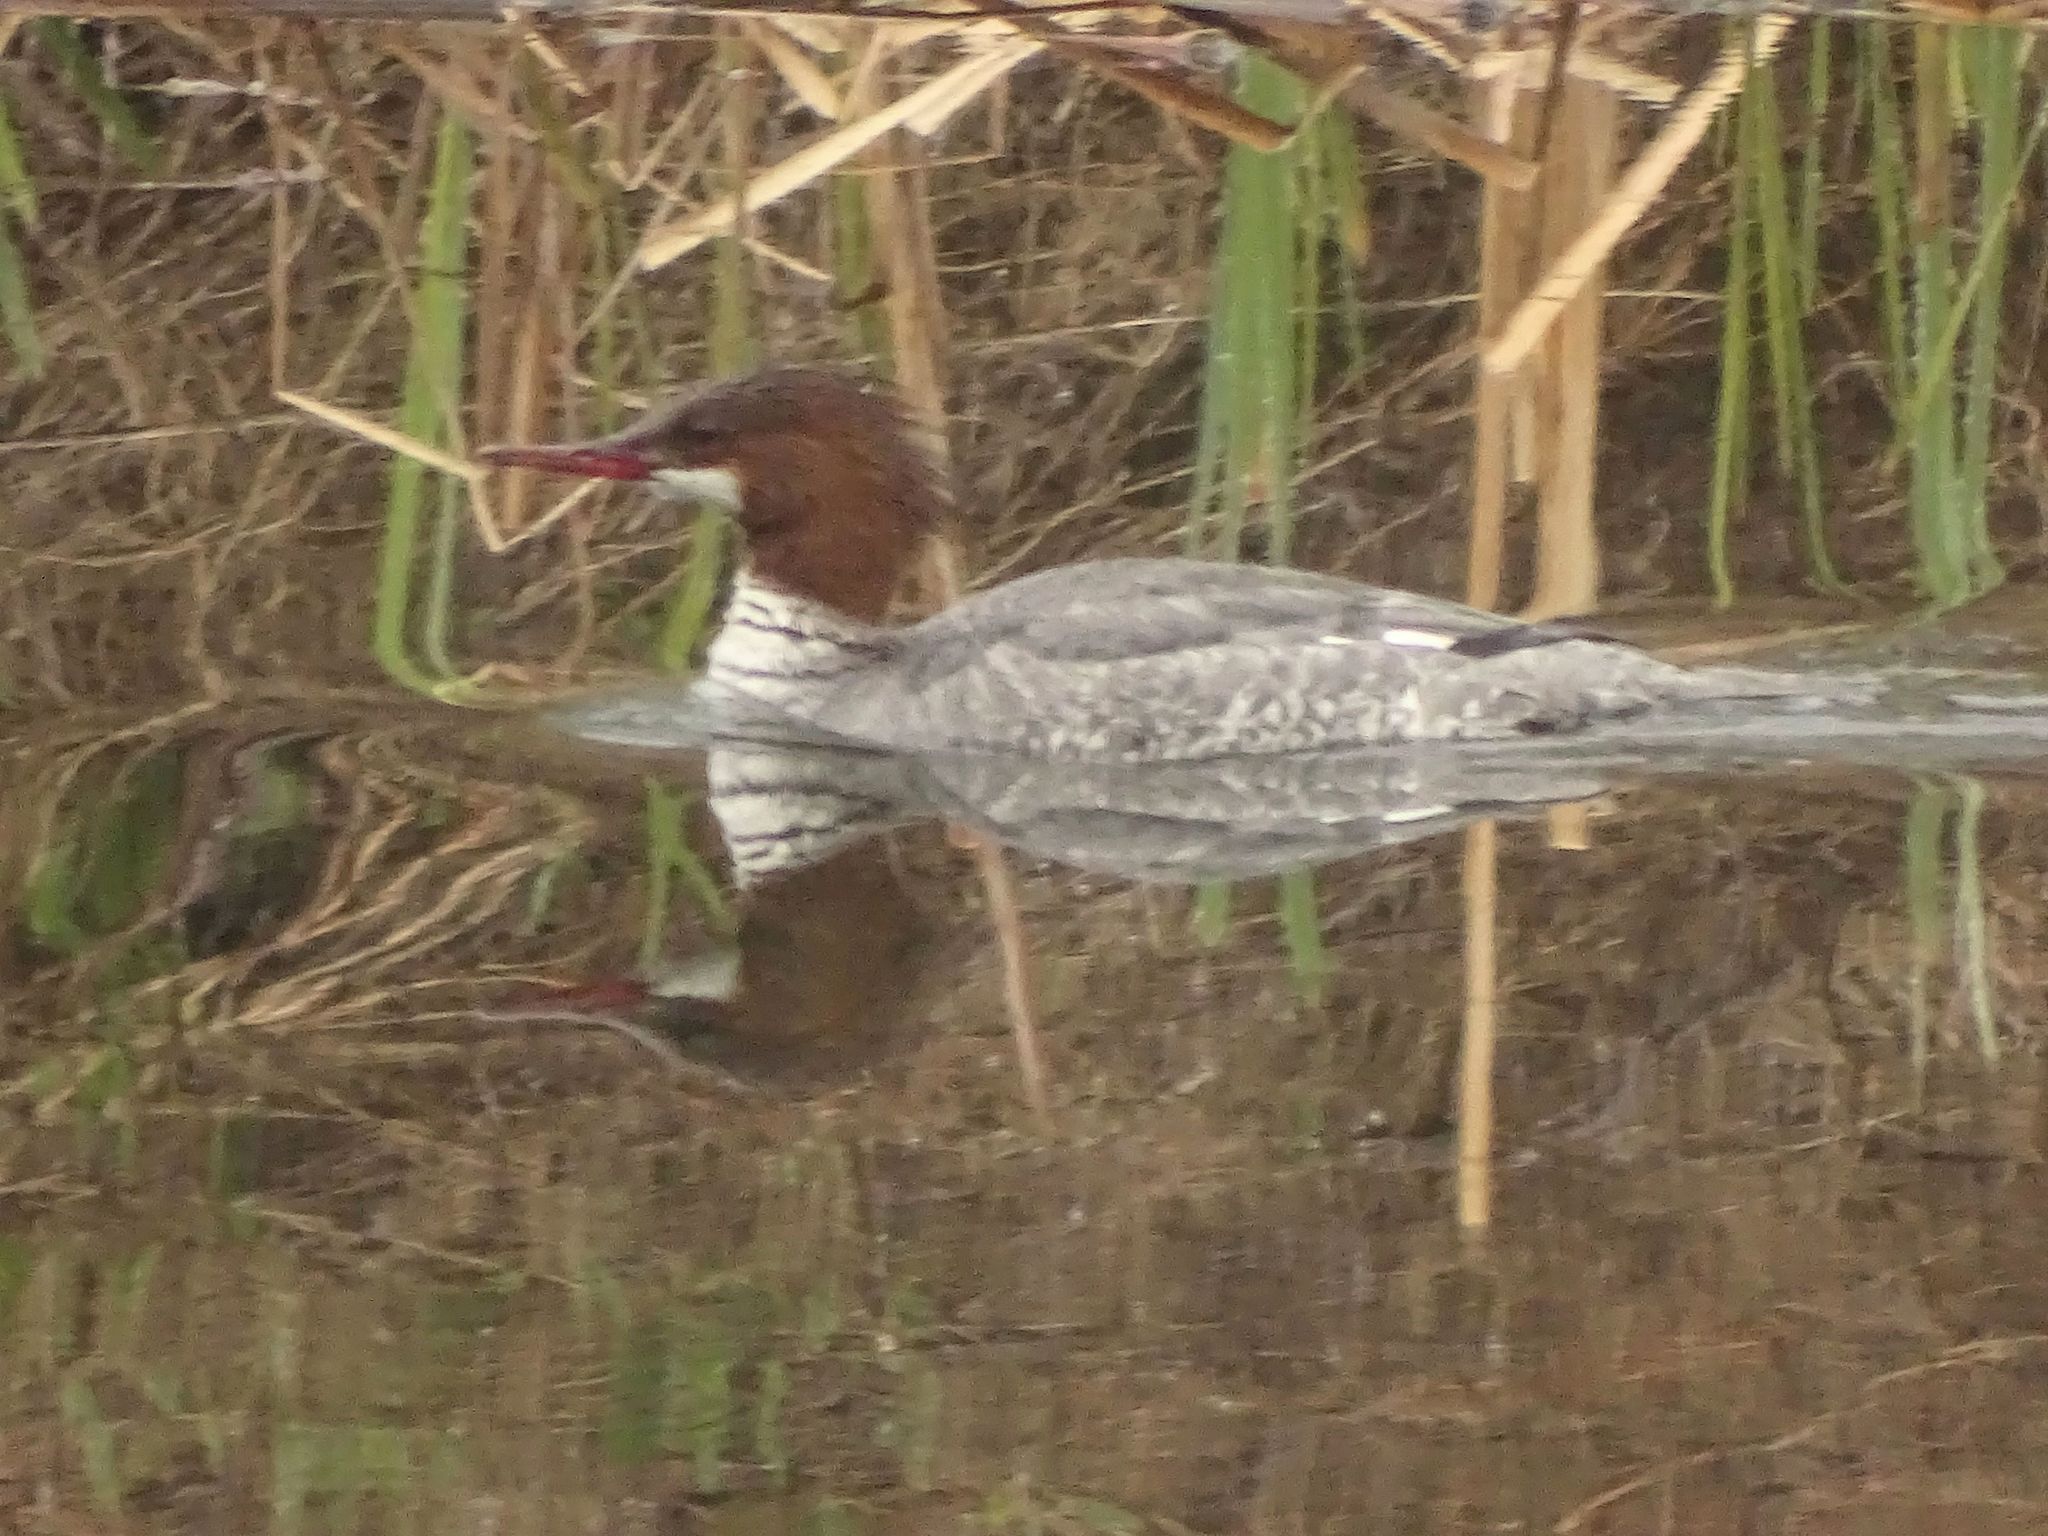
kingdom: Animalia
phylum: Chordata
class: Aves
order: Anseriformes
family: Anatidae
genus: Mergus
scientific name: Mergus merganser
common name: Common merganser
